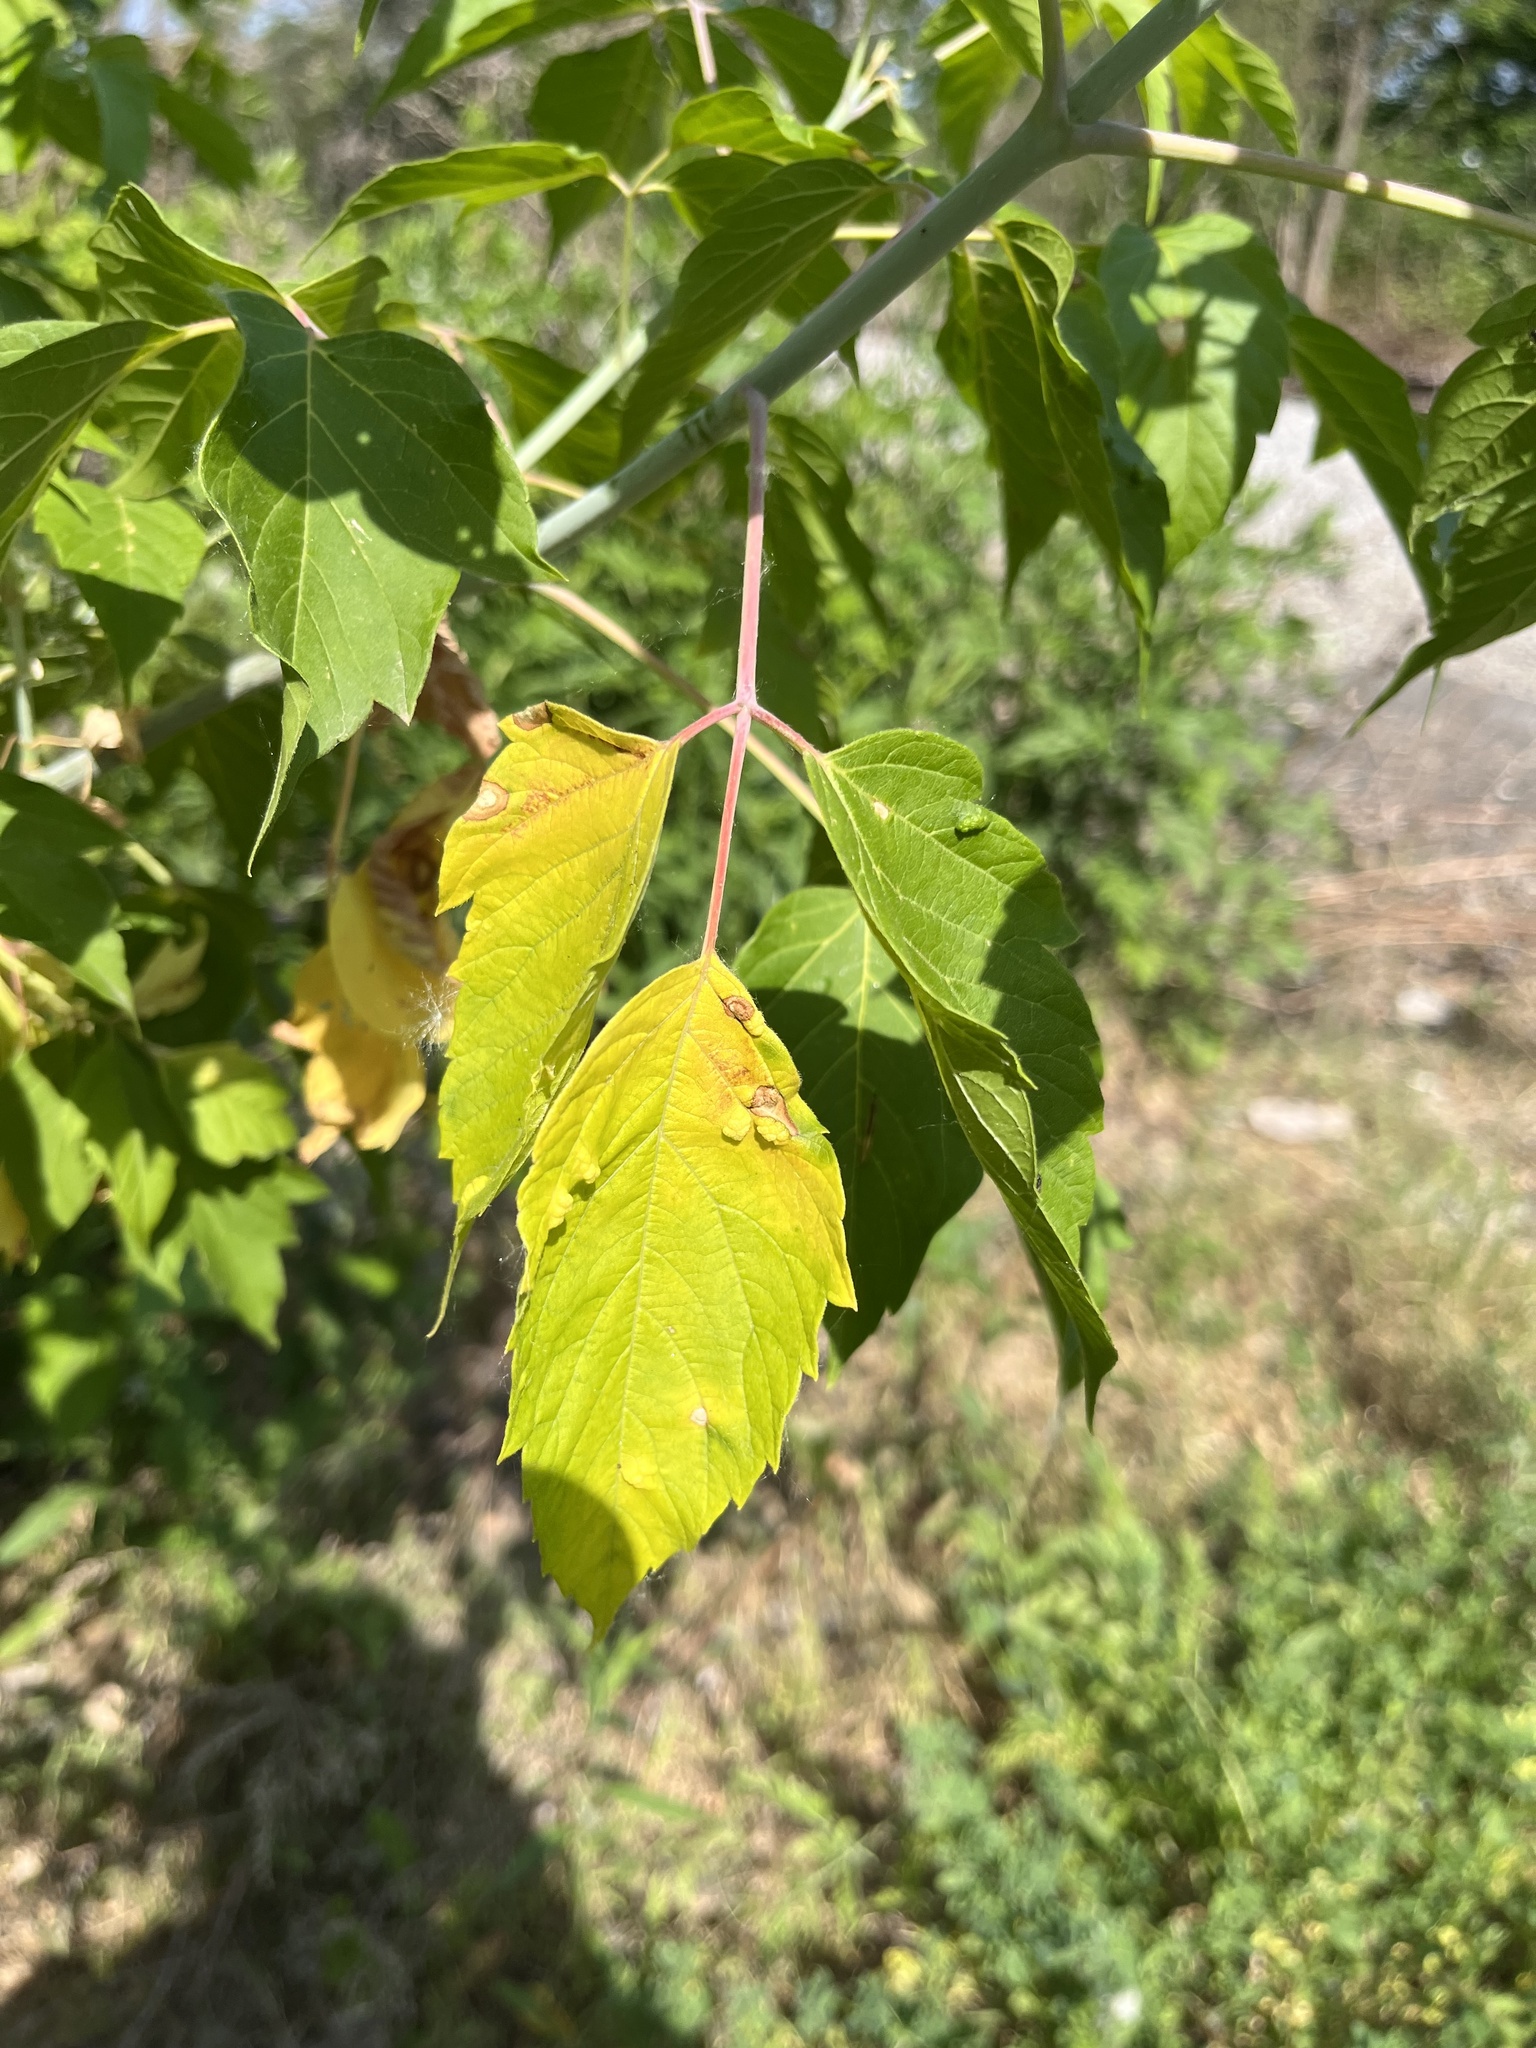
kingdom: Animalia
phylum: Arthropoda
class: Arachnida
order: Trombidiformes
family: Eriophyidae
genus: Aceria
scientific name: Aceria
